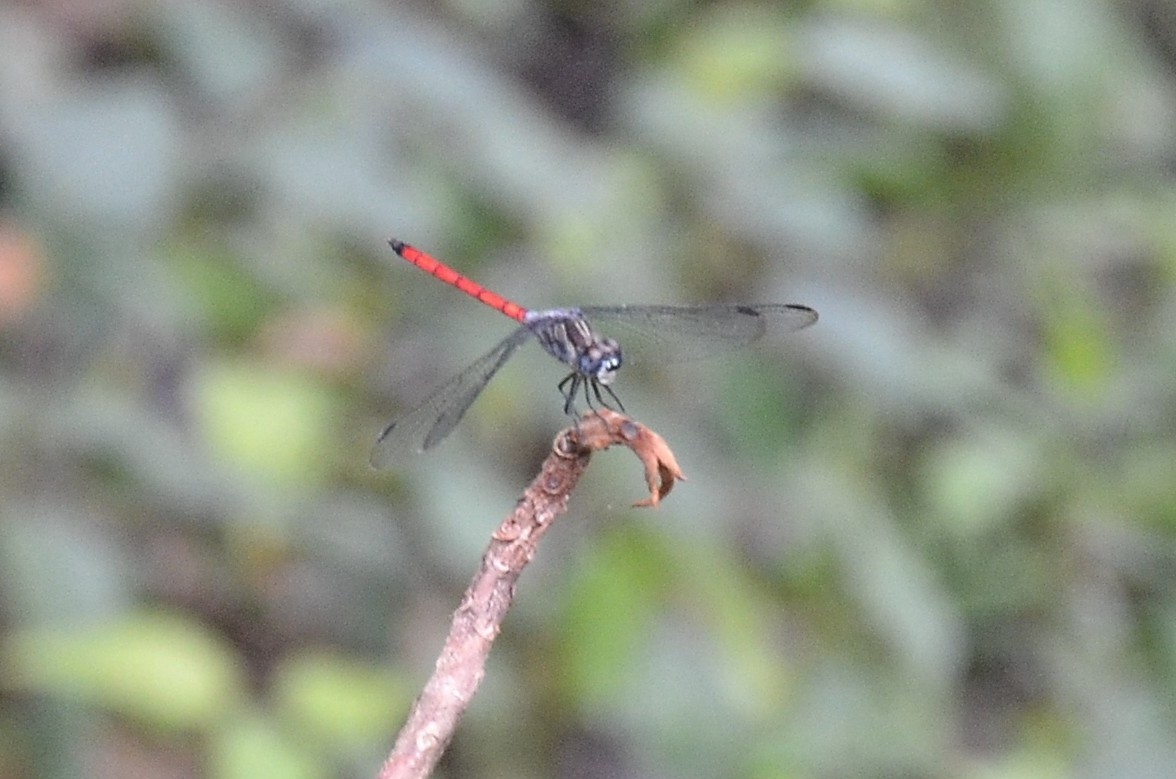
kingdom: Animalia
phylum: Arthropoda
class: Insecta
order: Odonata
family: Libellulidae
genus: Lathrecista
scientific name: Lathrecista asiatica
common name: Scarlet grenadier
